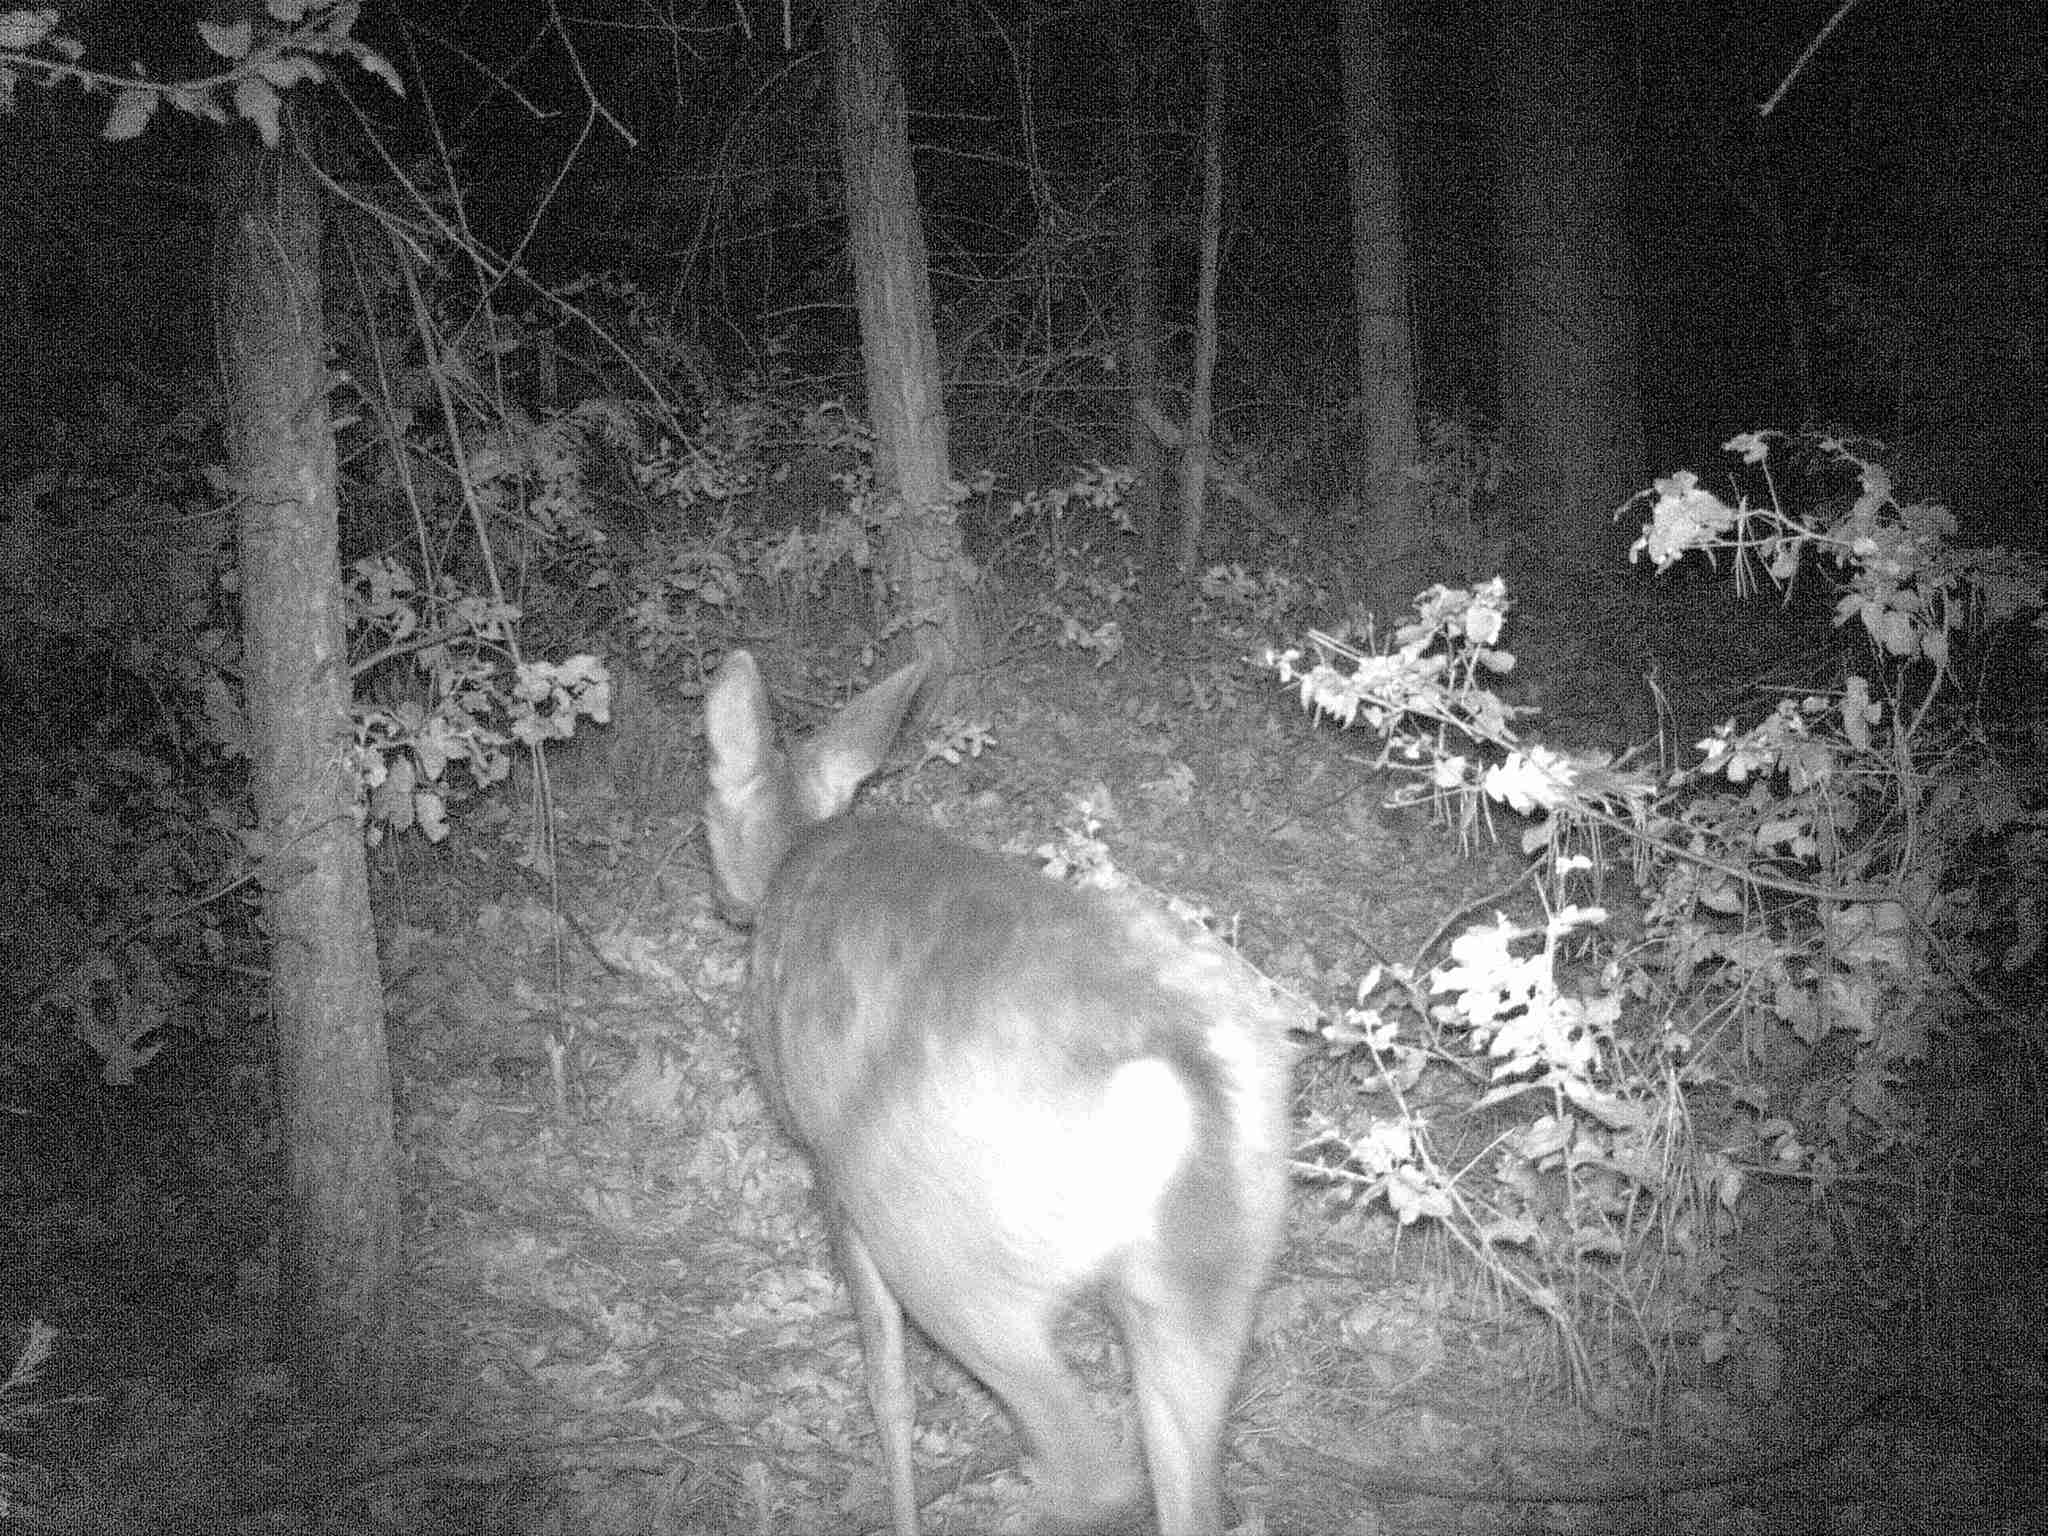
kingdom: Animalia
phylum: Chordata
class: Mammalia
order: Artiodactyla
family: Cervidae
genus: Odocoileus
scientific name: Odocoileus hemionus
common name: Mule deer
